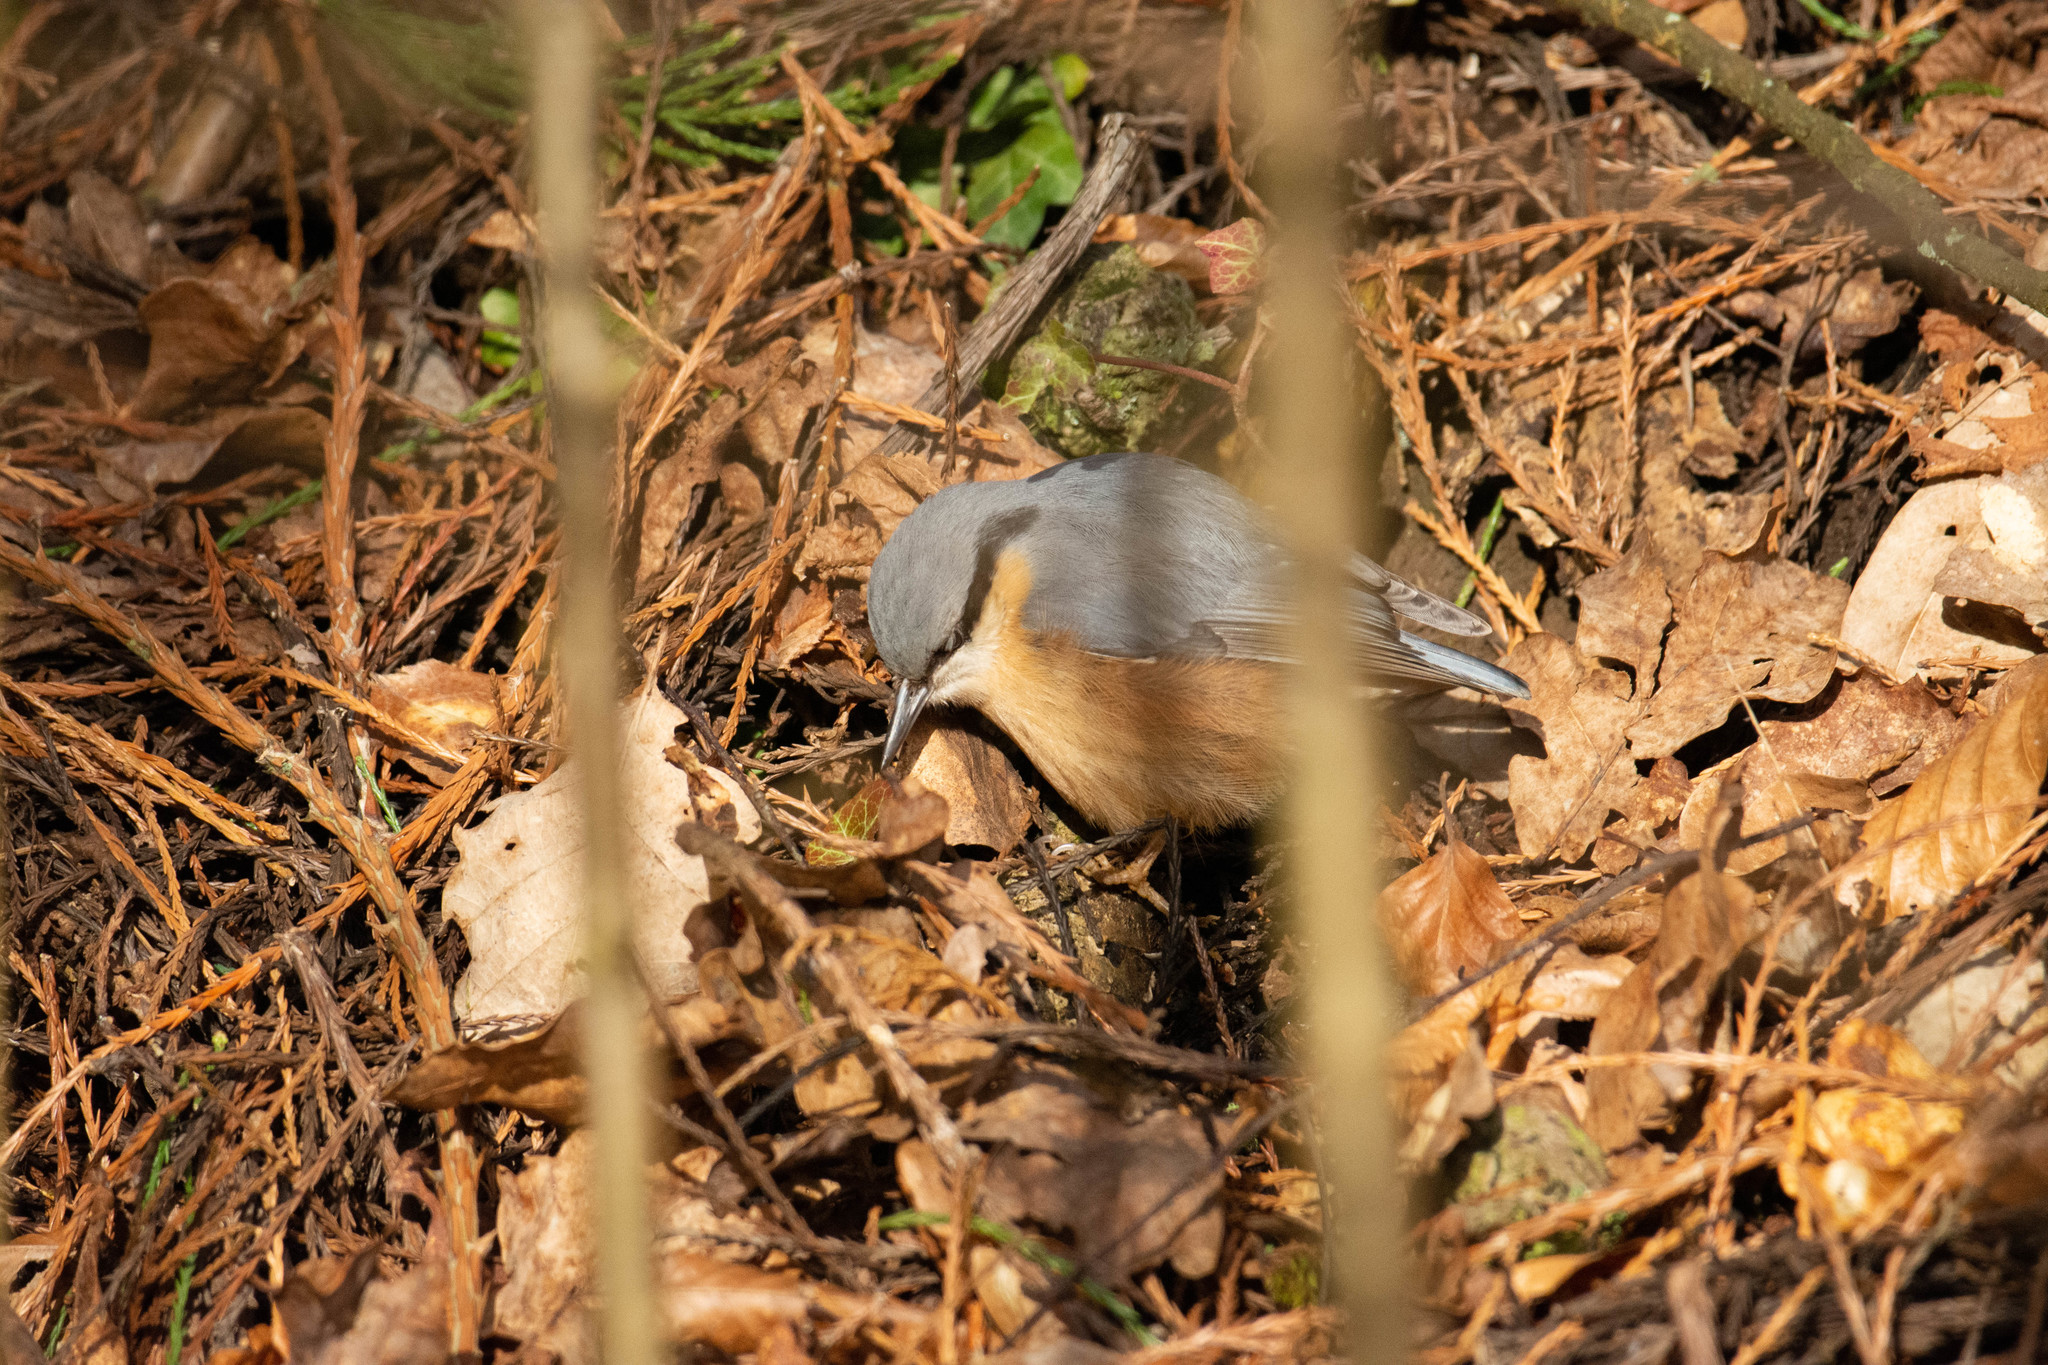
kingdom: Animalia
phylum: Chordata
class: Aves
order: Passeriformes
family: Sittidae
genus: Sitta
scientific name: Sitta europaea
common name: Eurasian nuthatch
